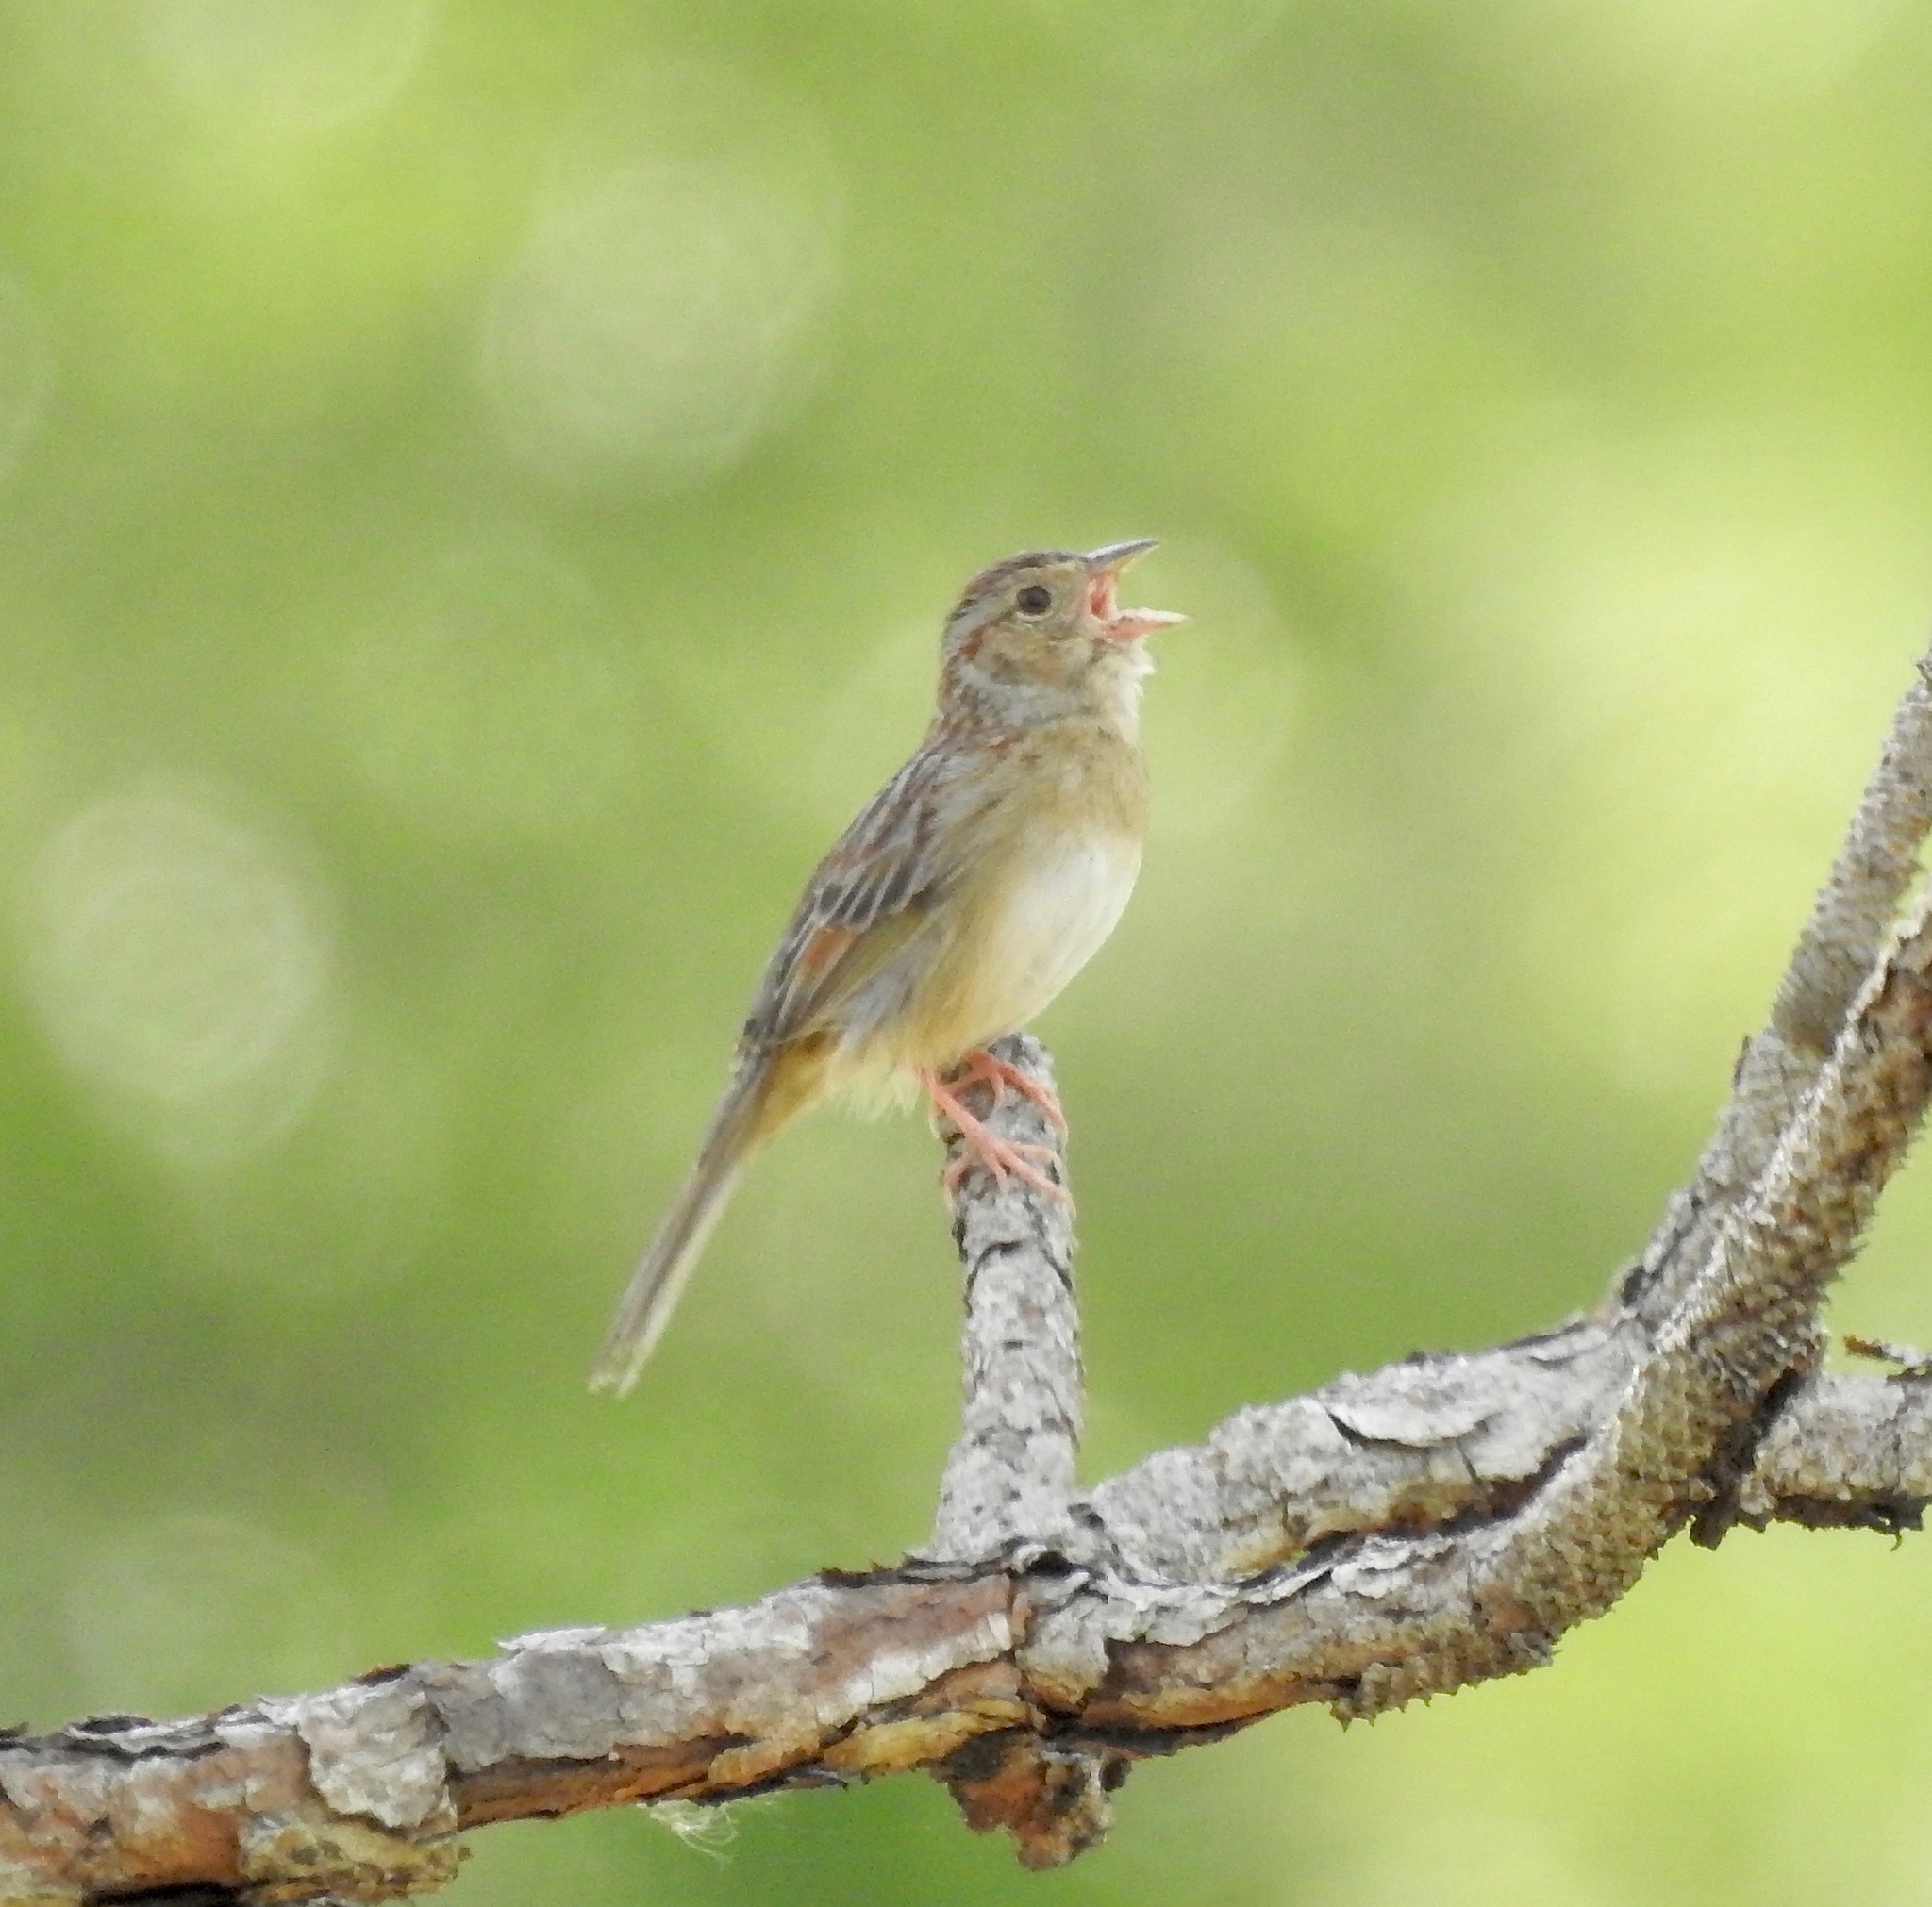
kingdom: Animalia
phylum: Chordata
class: Aves
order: Passeriformes
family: Passerellidae
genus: Peucaea
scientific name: Peucaea aestivalis
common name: Bachman's sparrow
